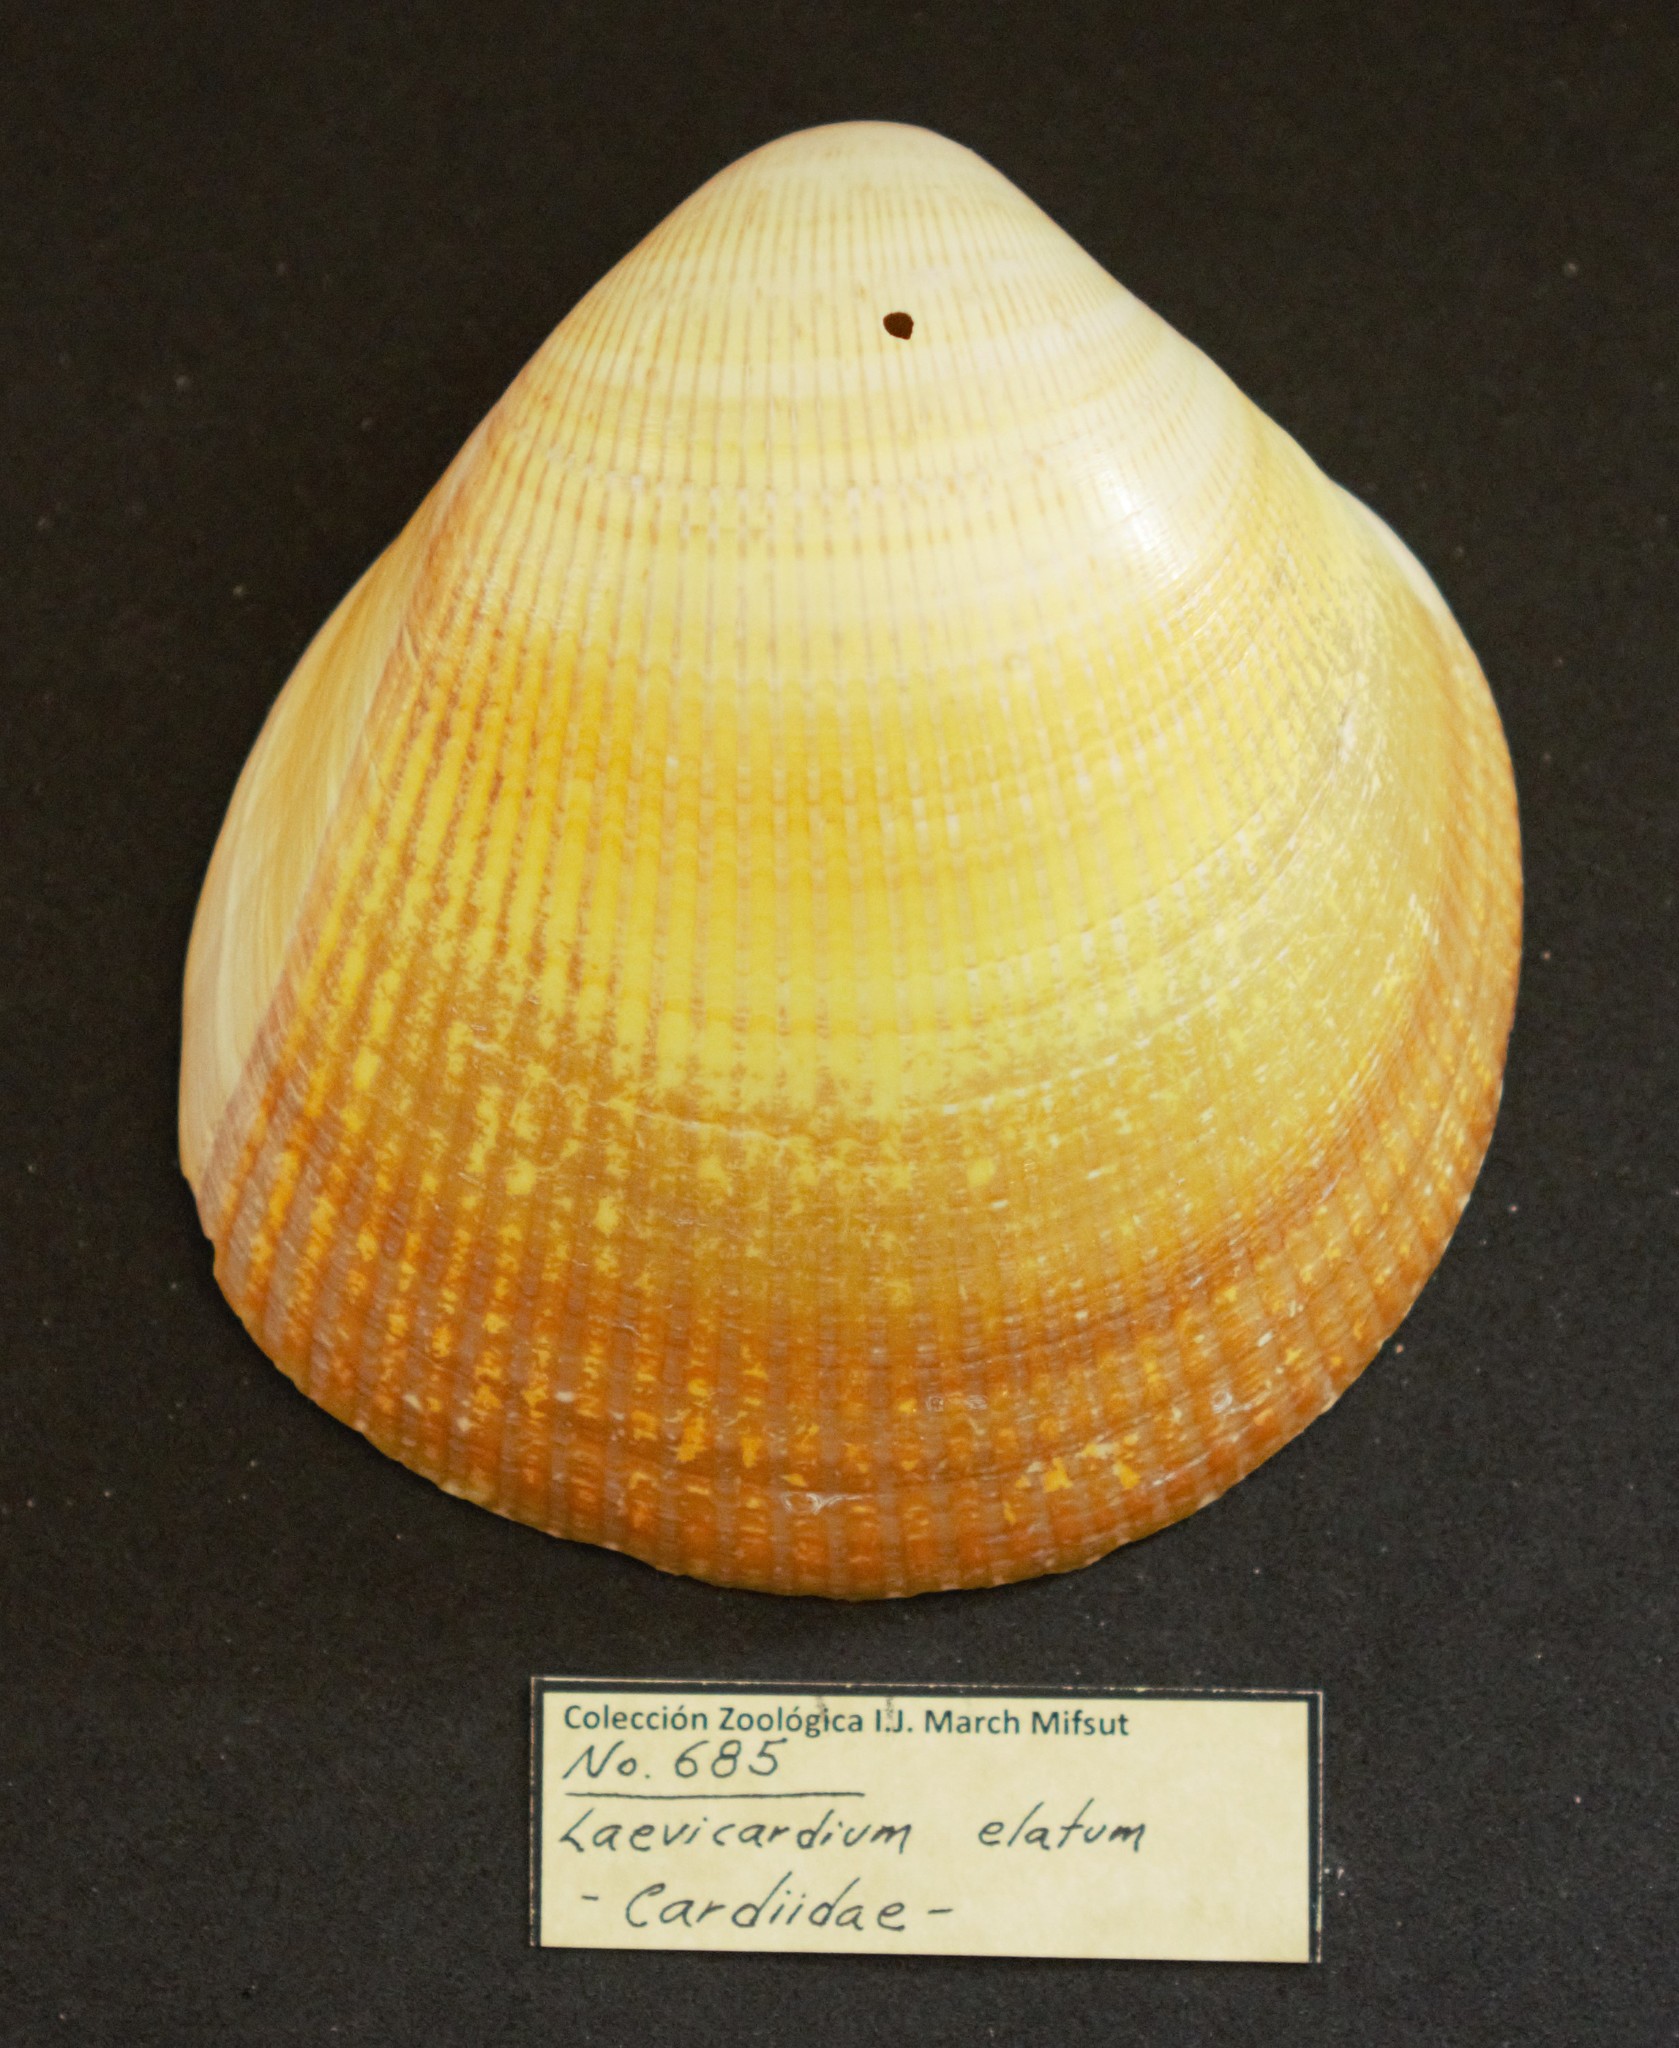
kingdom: Animalia
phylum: Mollusca
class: Bivalvia
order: Cardiida
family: Cardiidae
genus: Laevicardium
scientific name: Laevicardium elatum
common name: Giant pacific eggcockle
